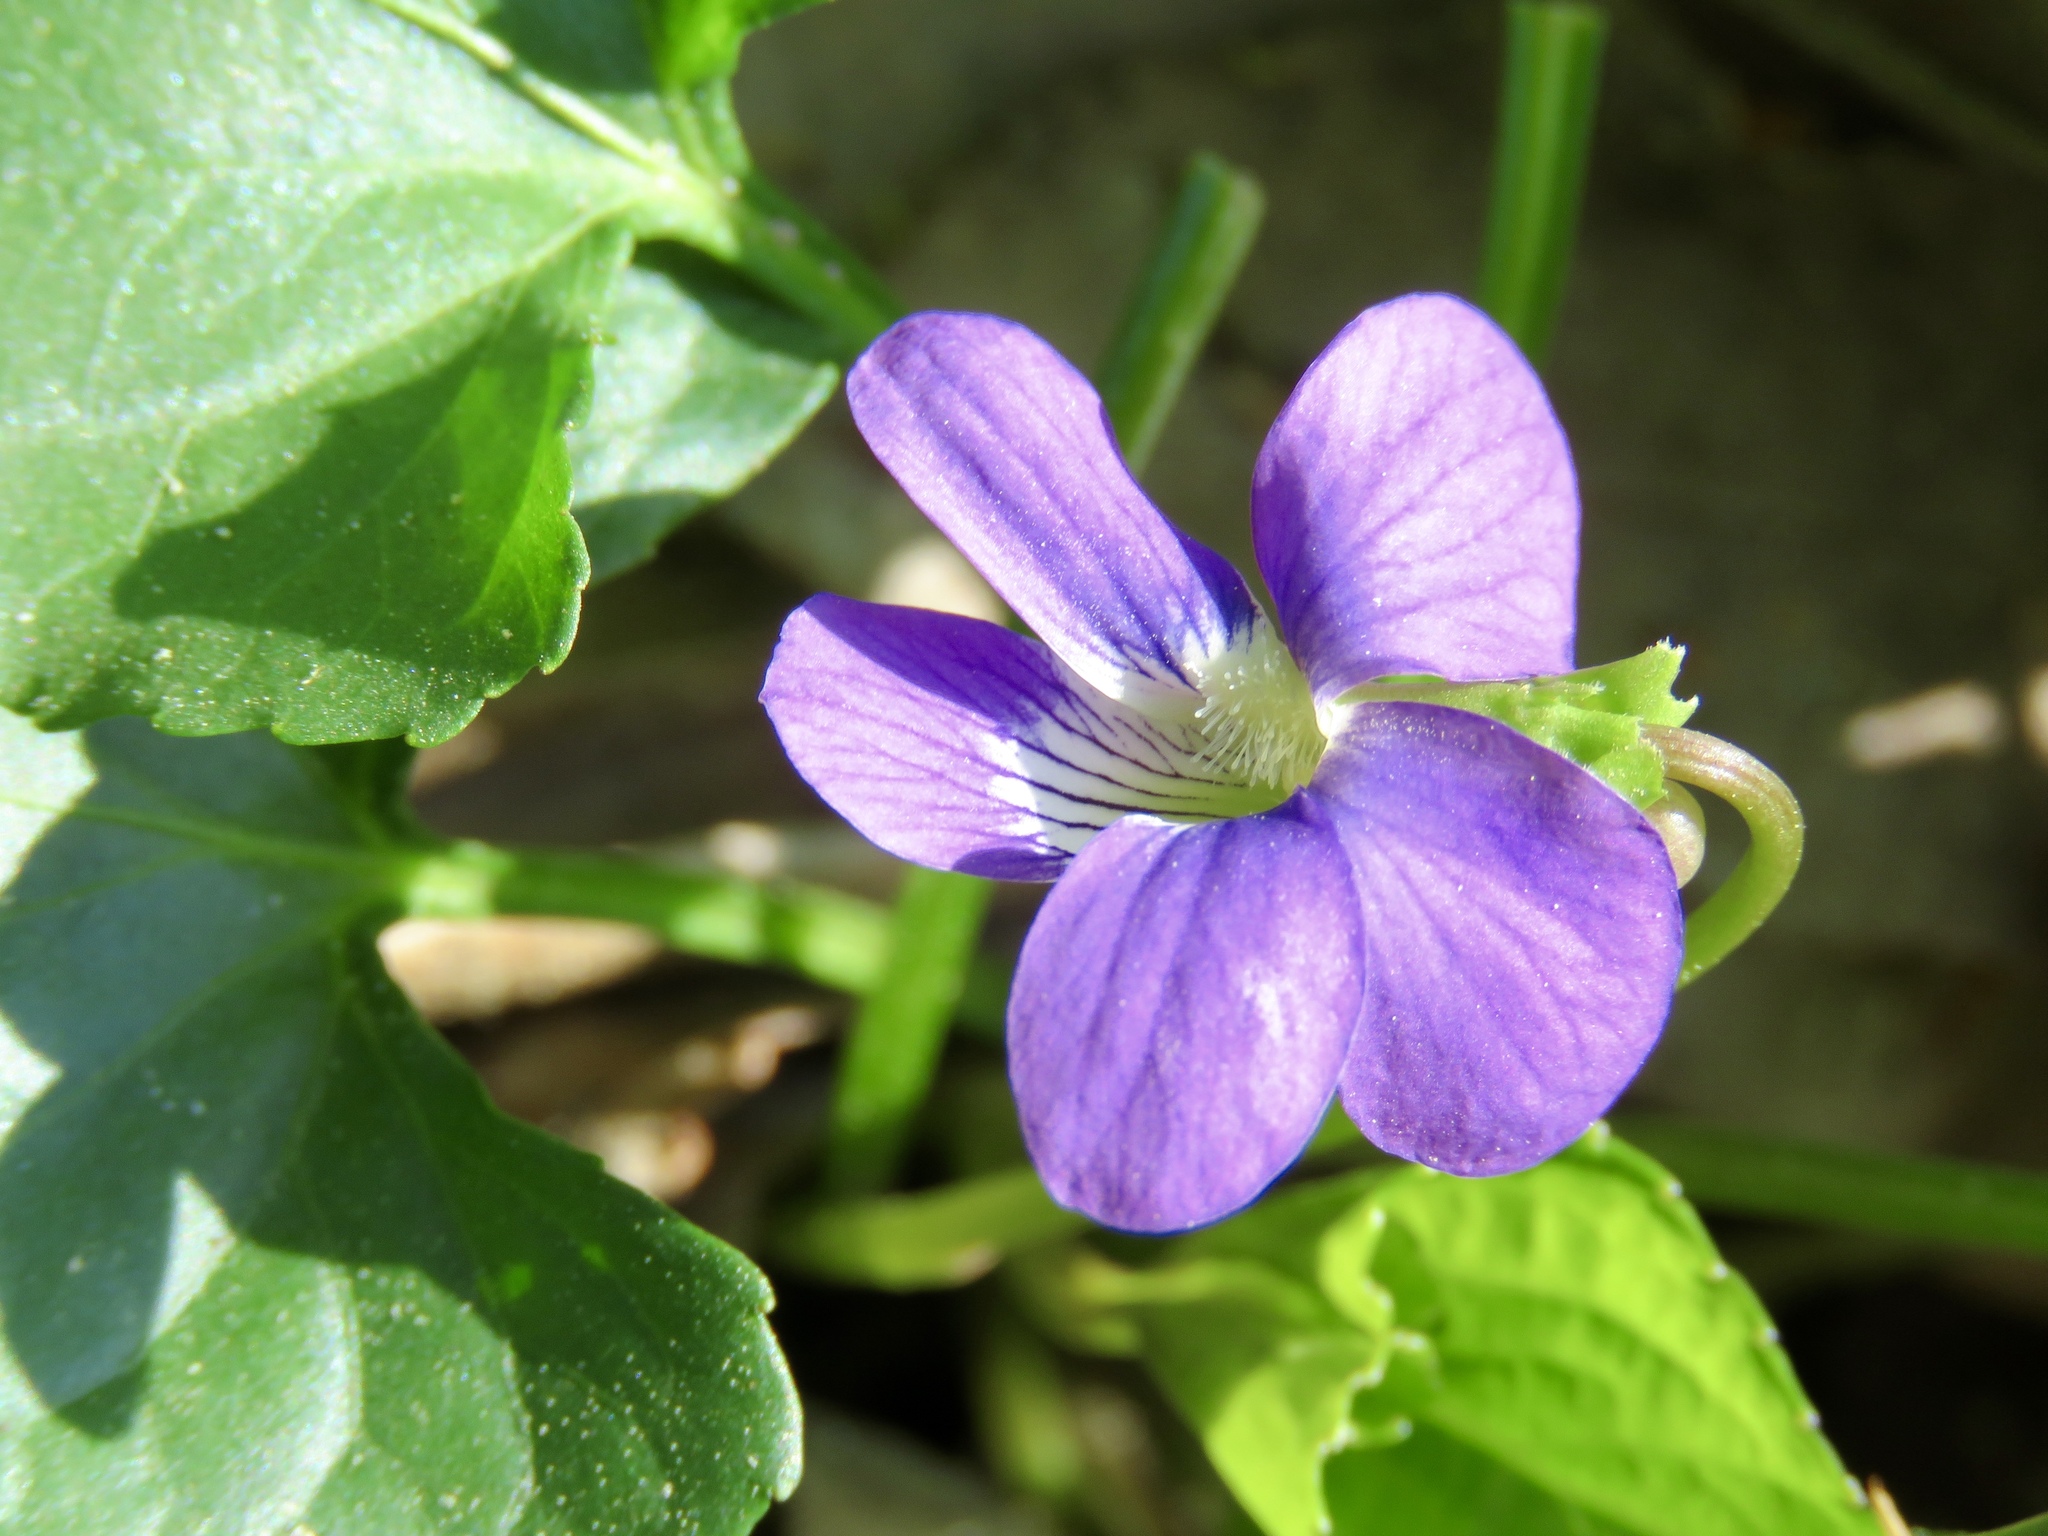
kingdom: Plantae
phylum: Tracheophyta
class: Magnoliopsida
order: Malpighiales
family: Violaceae
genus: Viola
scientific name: Viola sororia
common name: Dooryard violet
